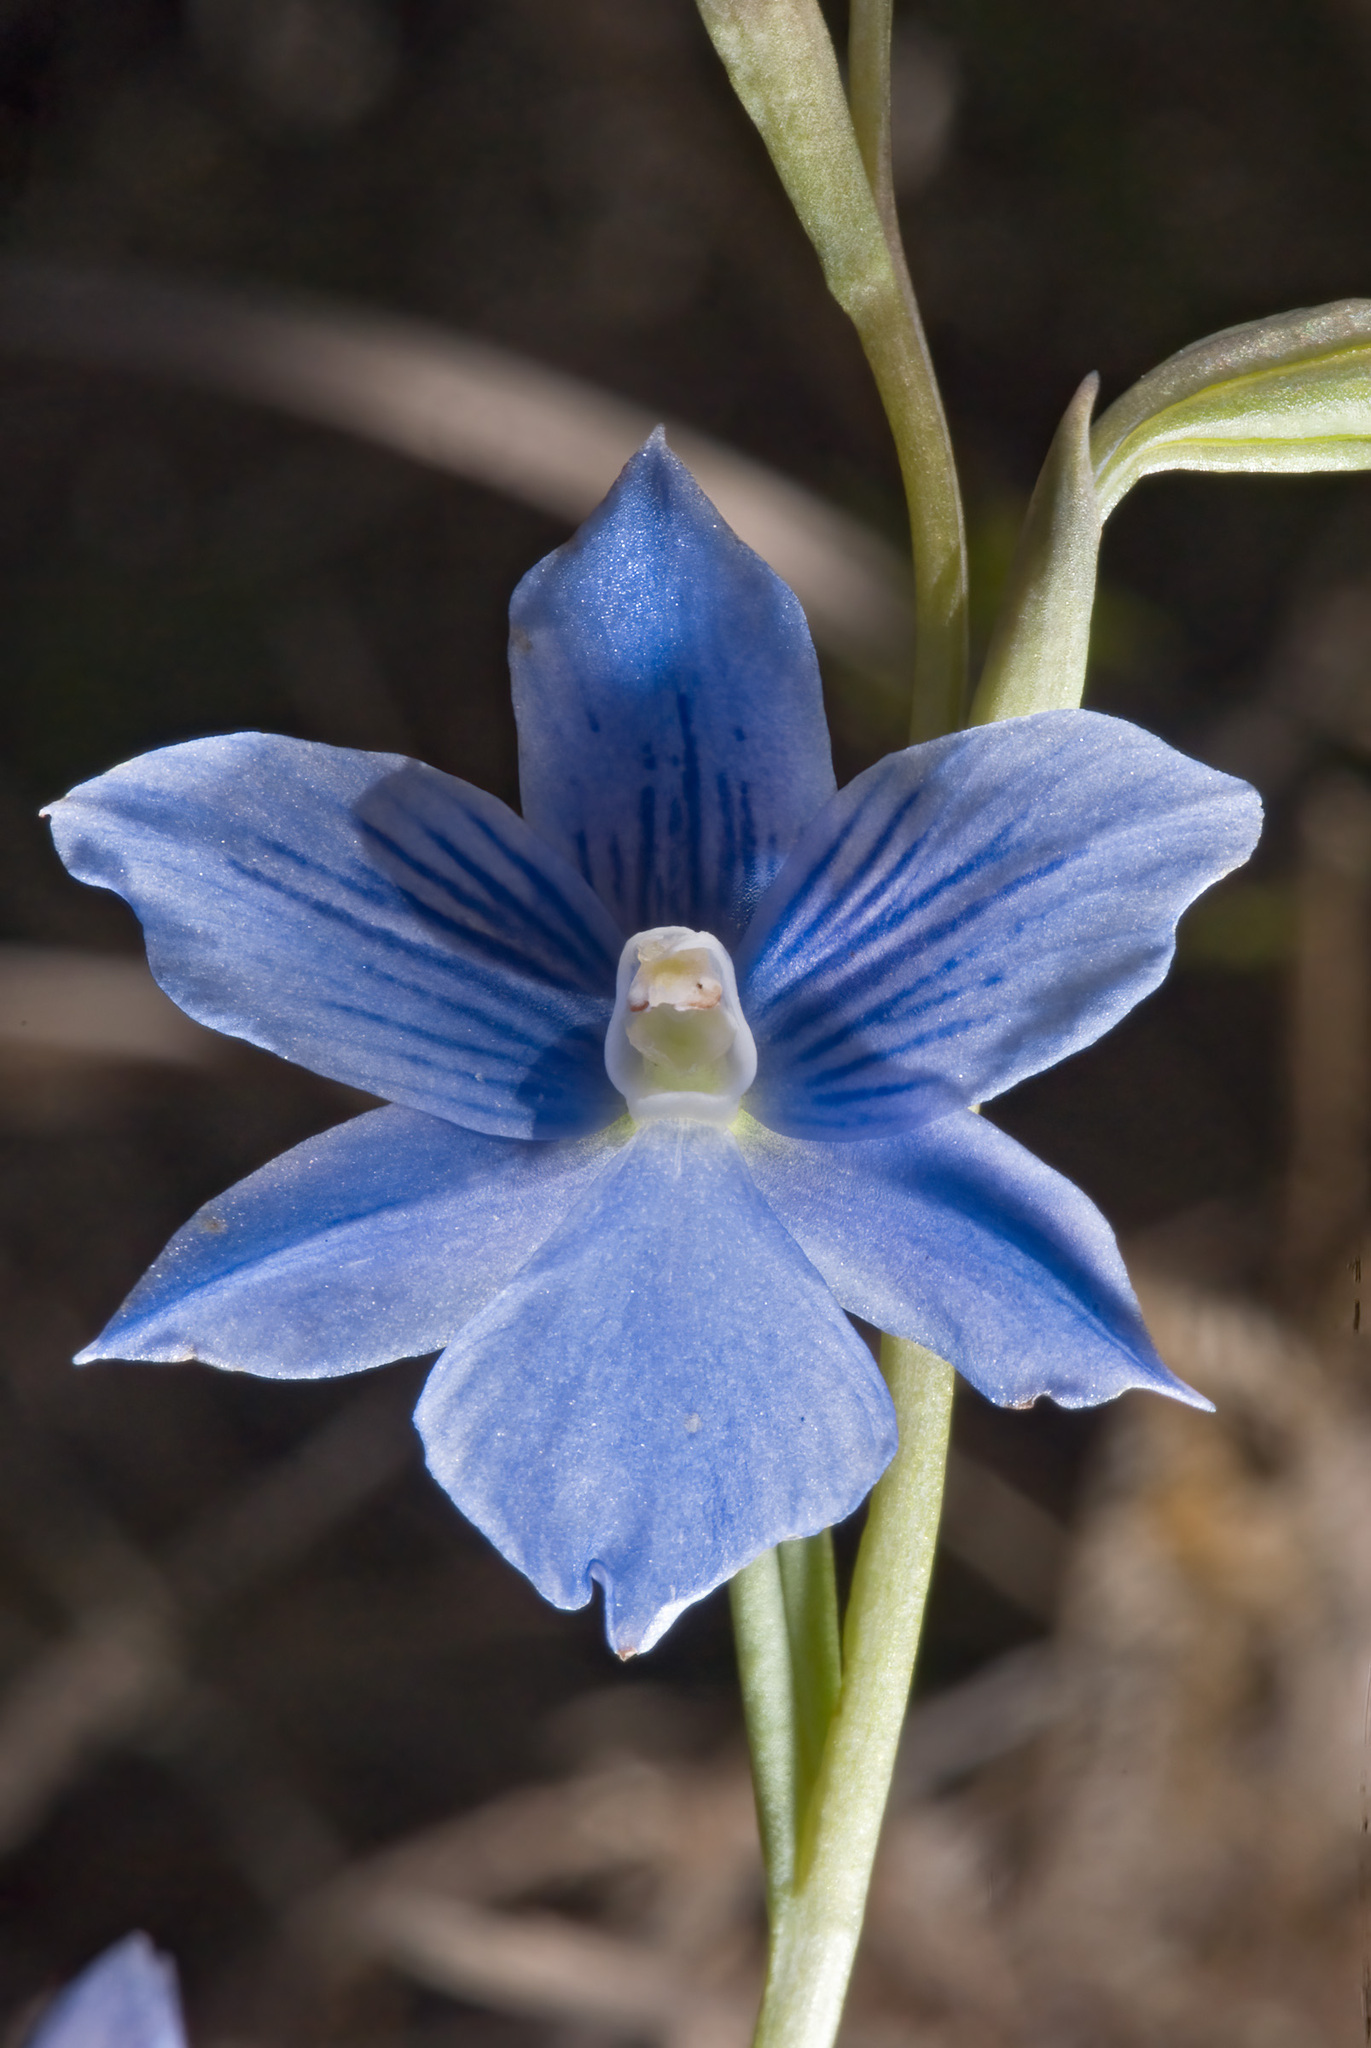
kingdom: Plantae
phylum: Tracheophyta
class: Liliopsida
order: Asparagales
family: Orchidaceae
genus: Thelymitra
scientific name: Thelymitra cyanea
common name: Blue sun-orchid
